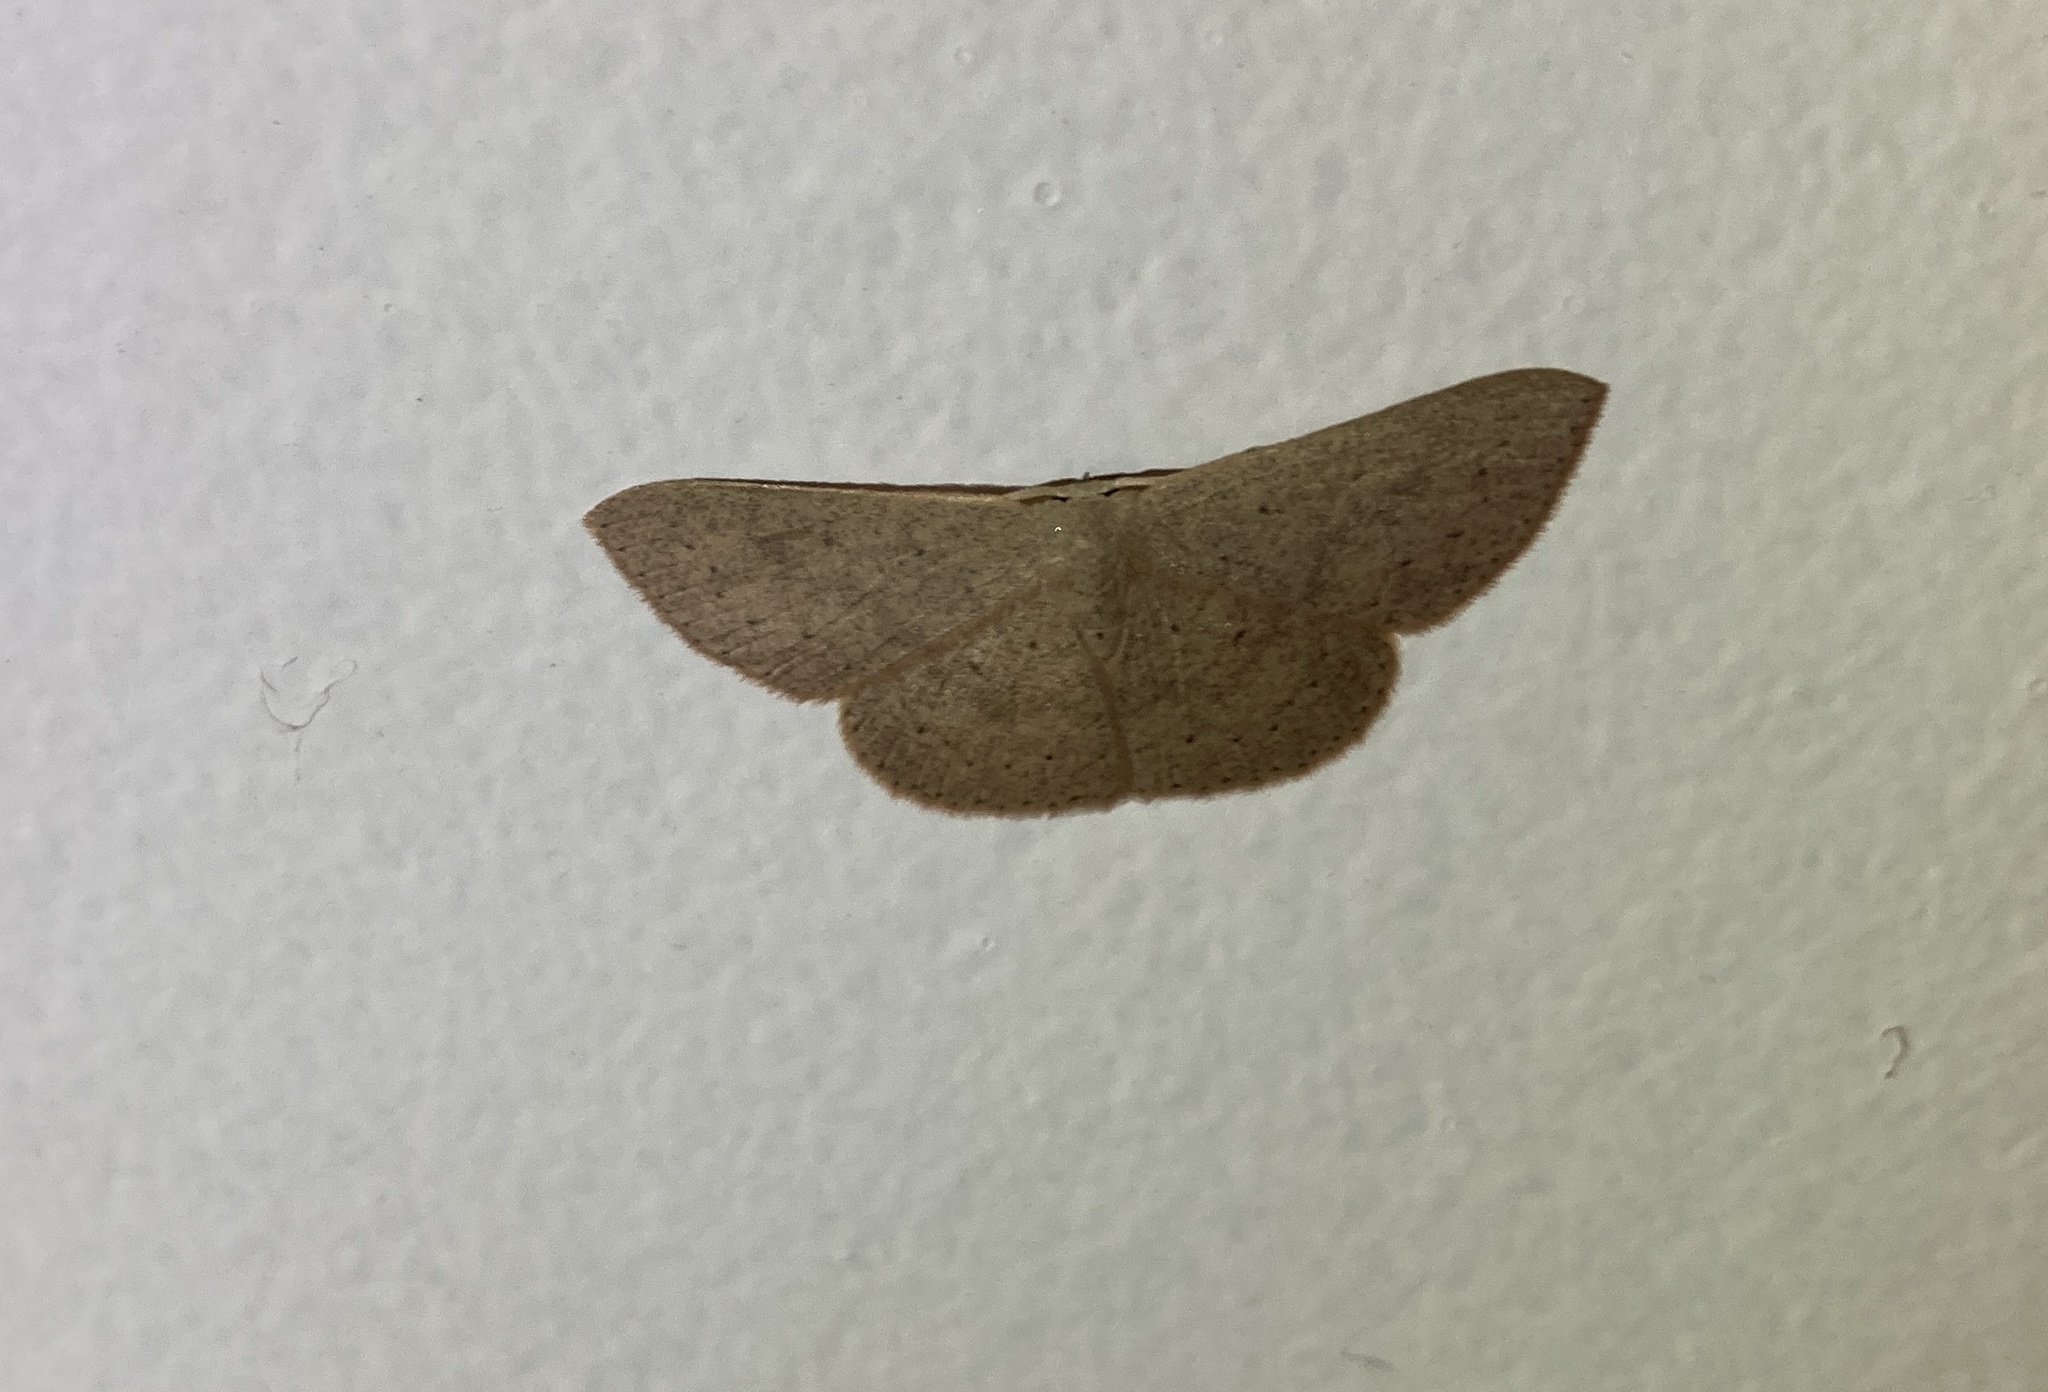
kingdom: Animalia
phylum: Arthropoda
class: Insecta
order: Lepidoptera
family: Geometridae
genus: Cyclophora
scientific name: Cyclophora obstataria
